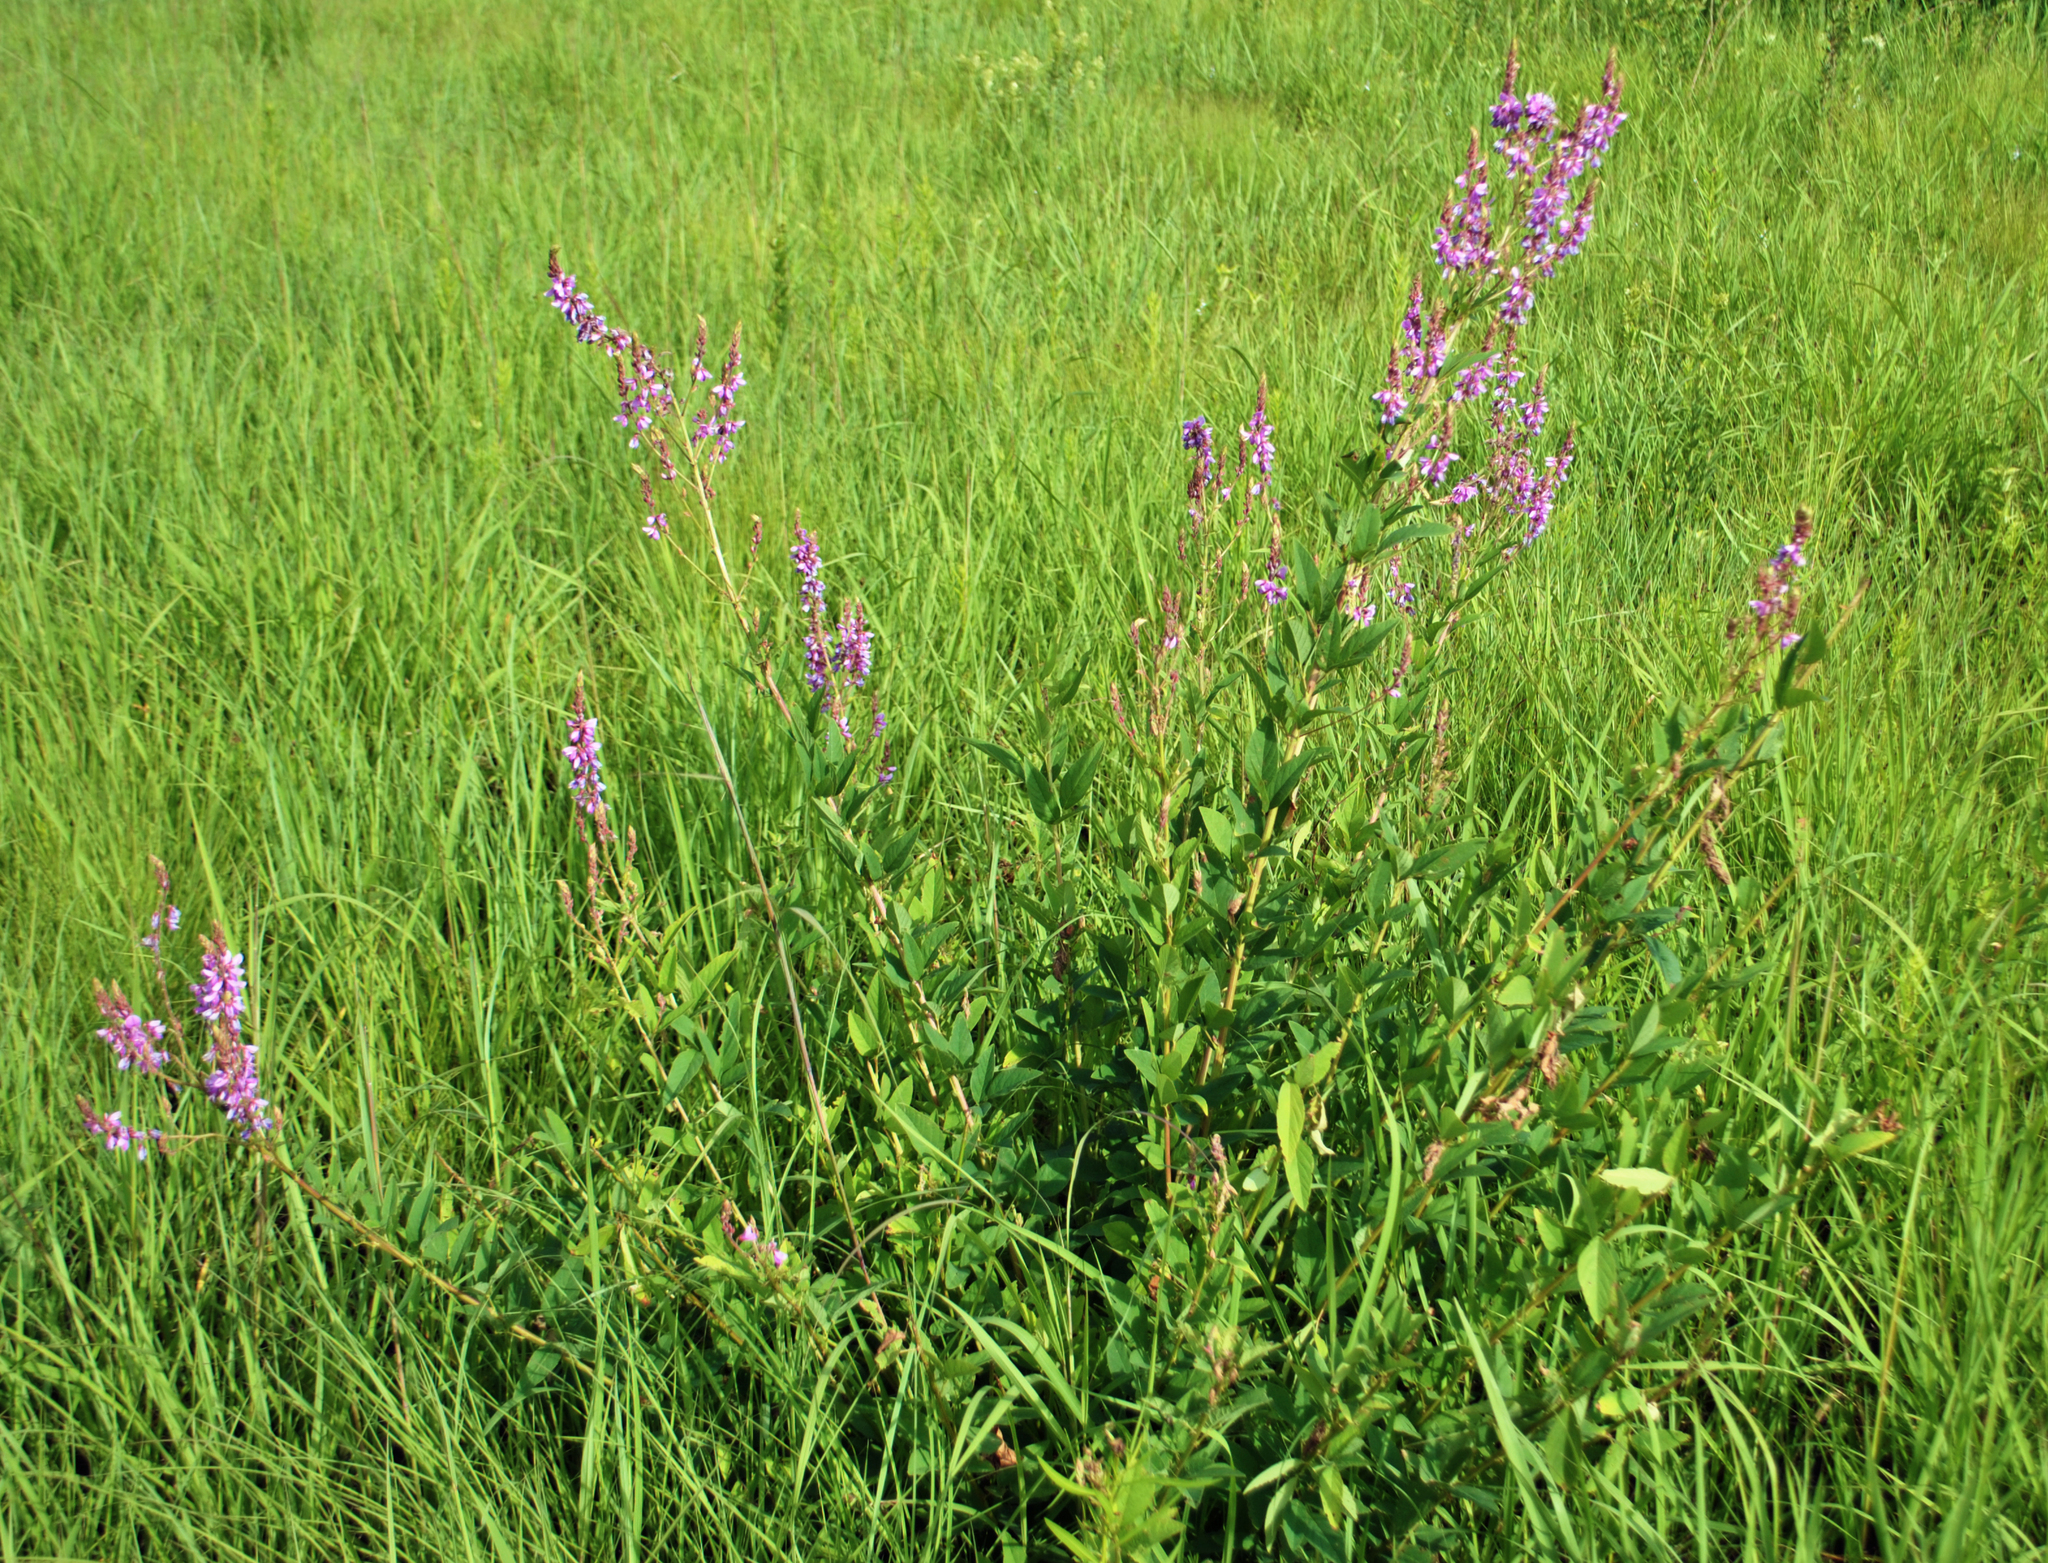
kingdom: Plantae
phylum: Tracheophyta
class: Magnoliopsida
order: Fabales
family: Fabaceae
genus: Desmodium
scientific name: Desmodium canadense
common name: Canada tick-trefoil
